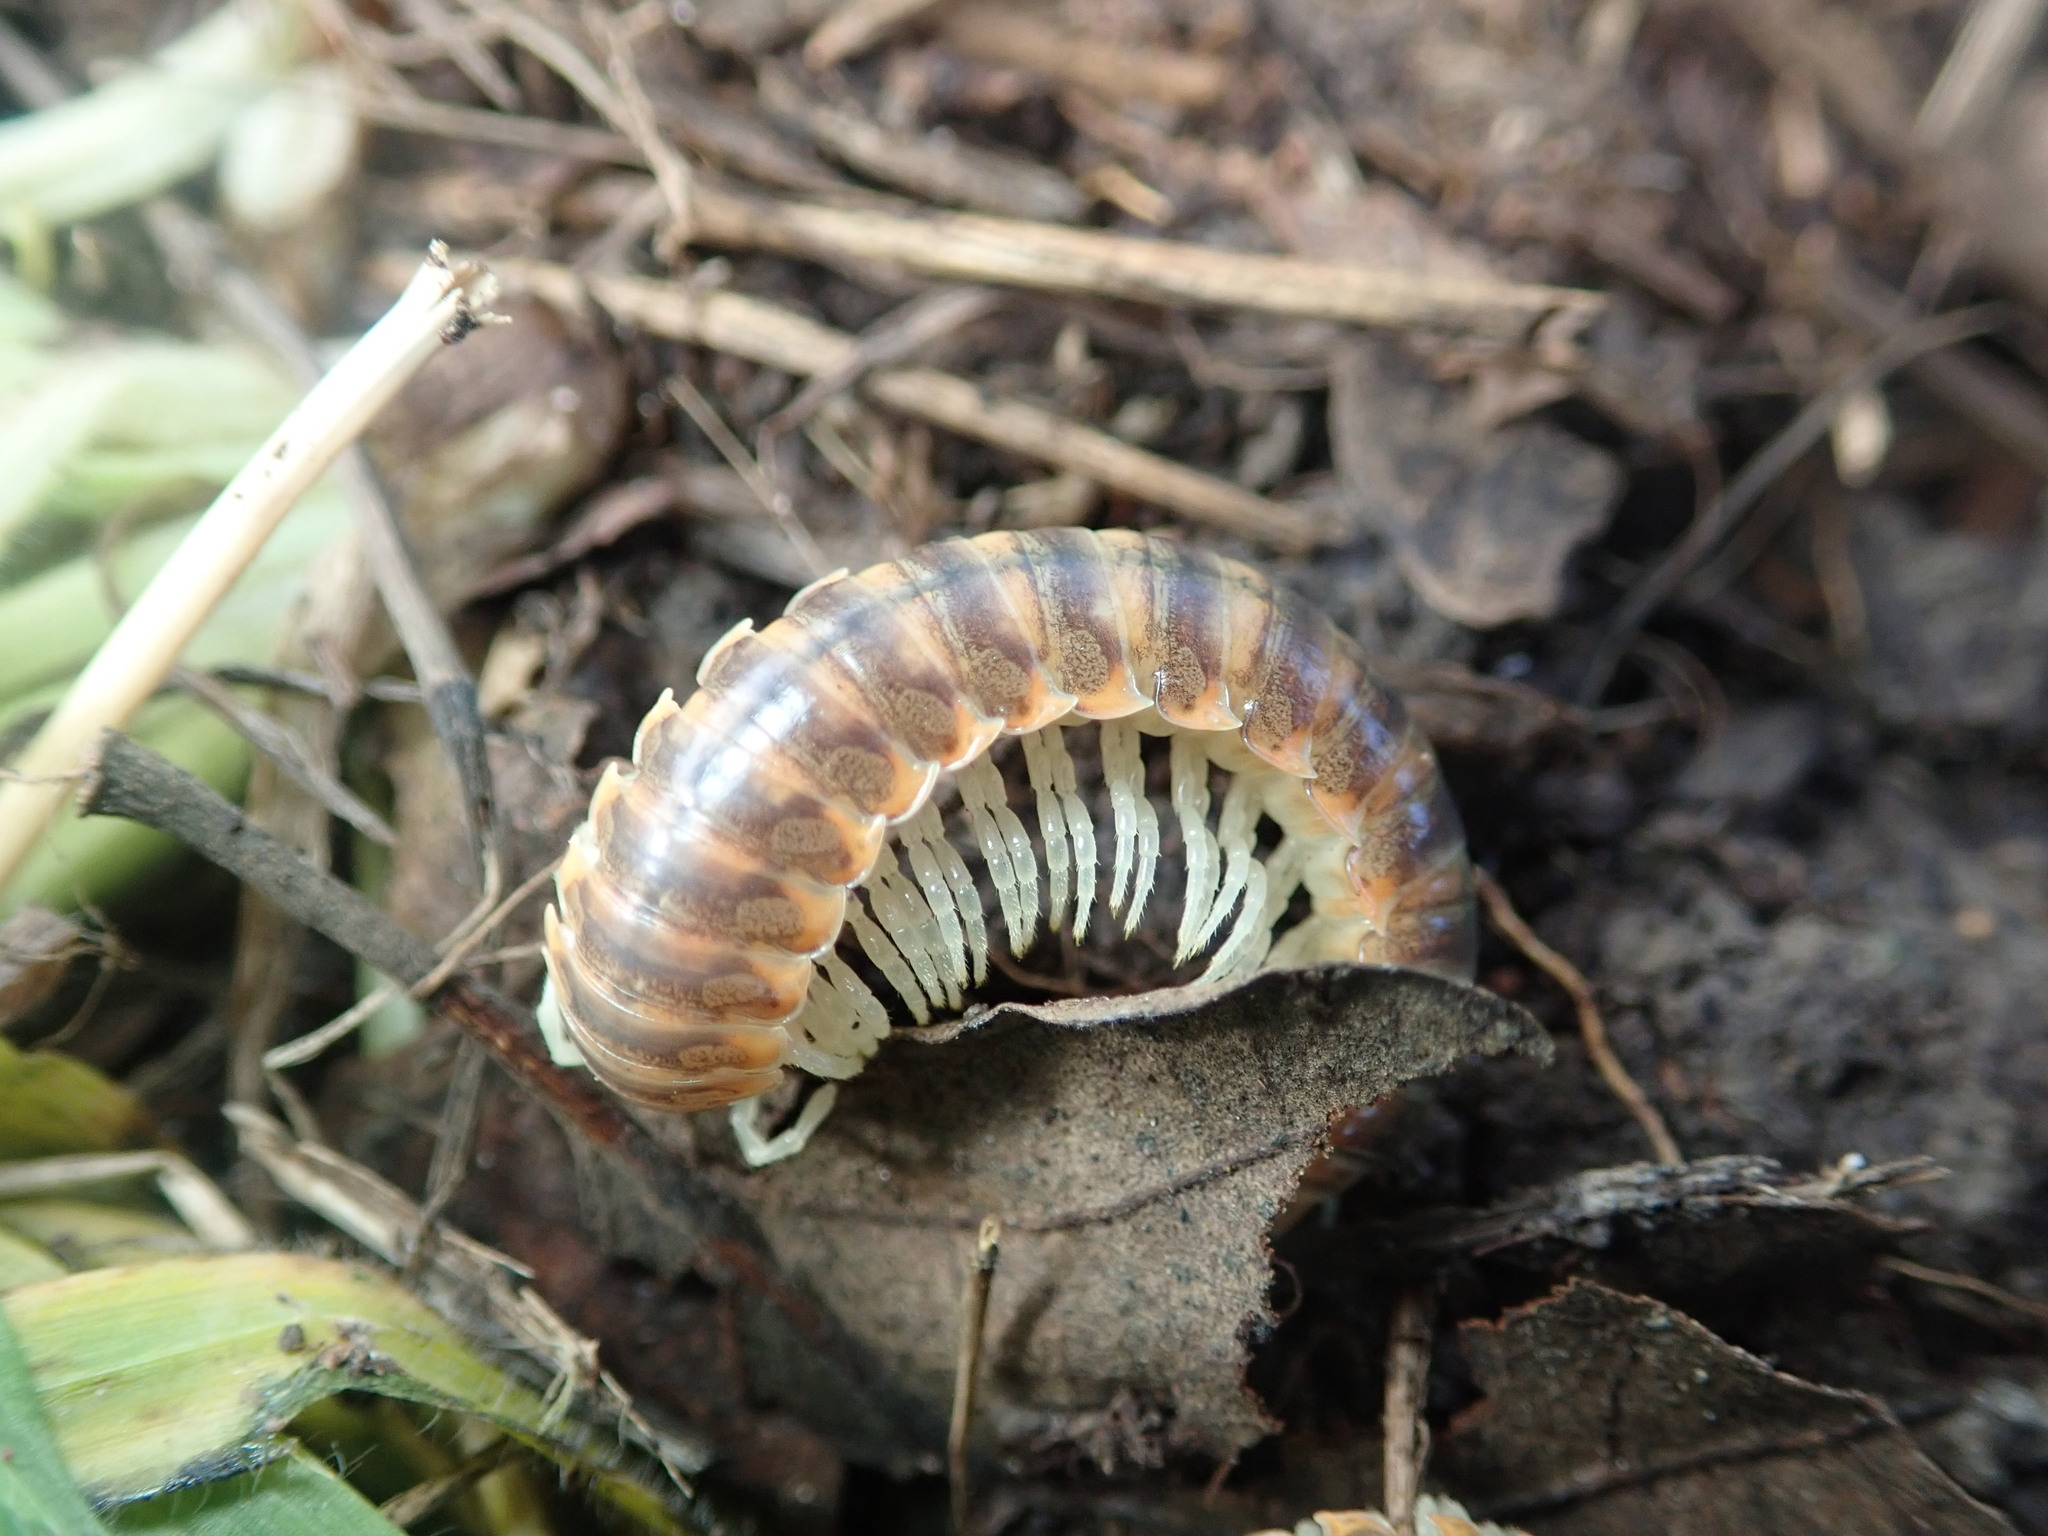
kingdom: Animalia
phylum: Arthropoda
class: Diplopoda
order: Polydesmida
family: Xystodesmidae
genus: Xystocheir
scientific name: Xystocheir dissecta
